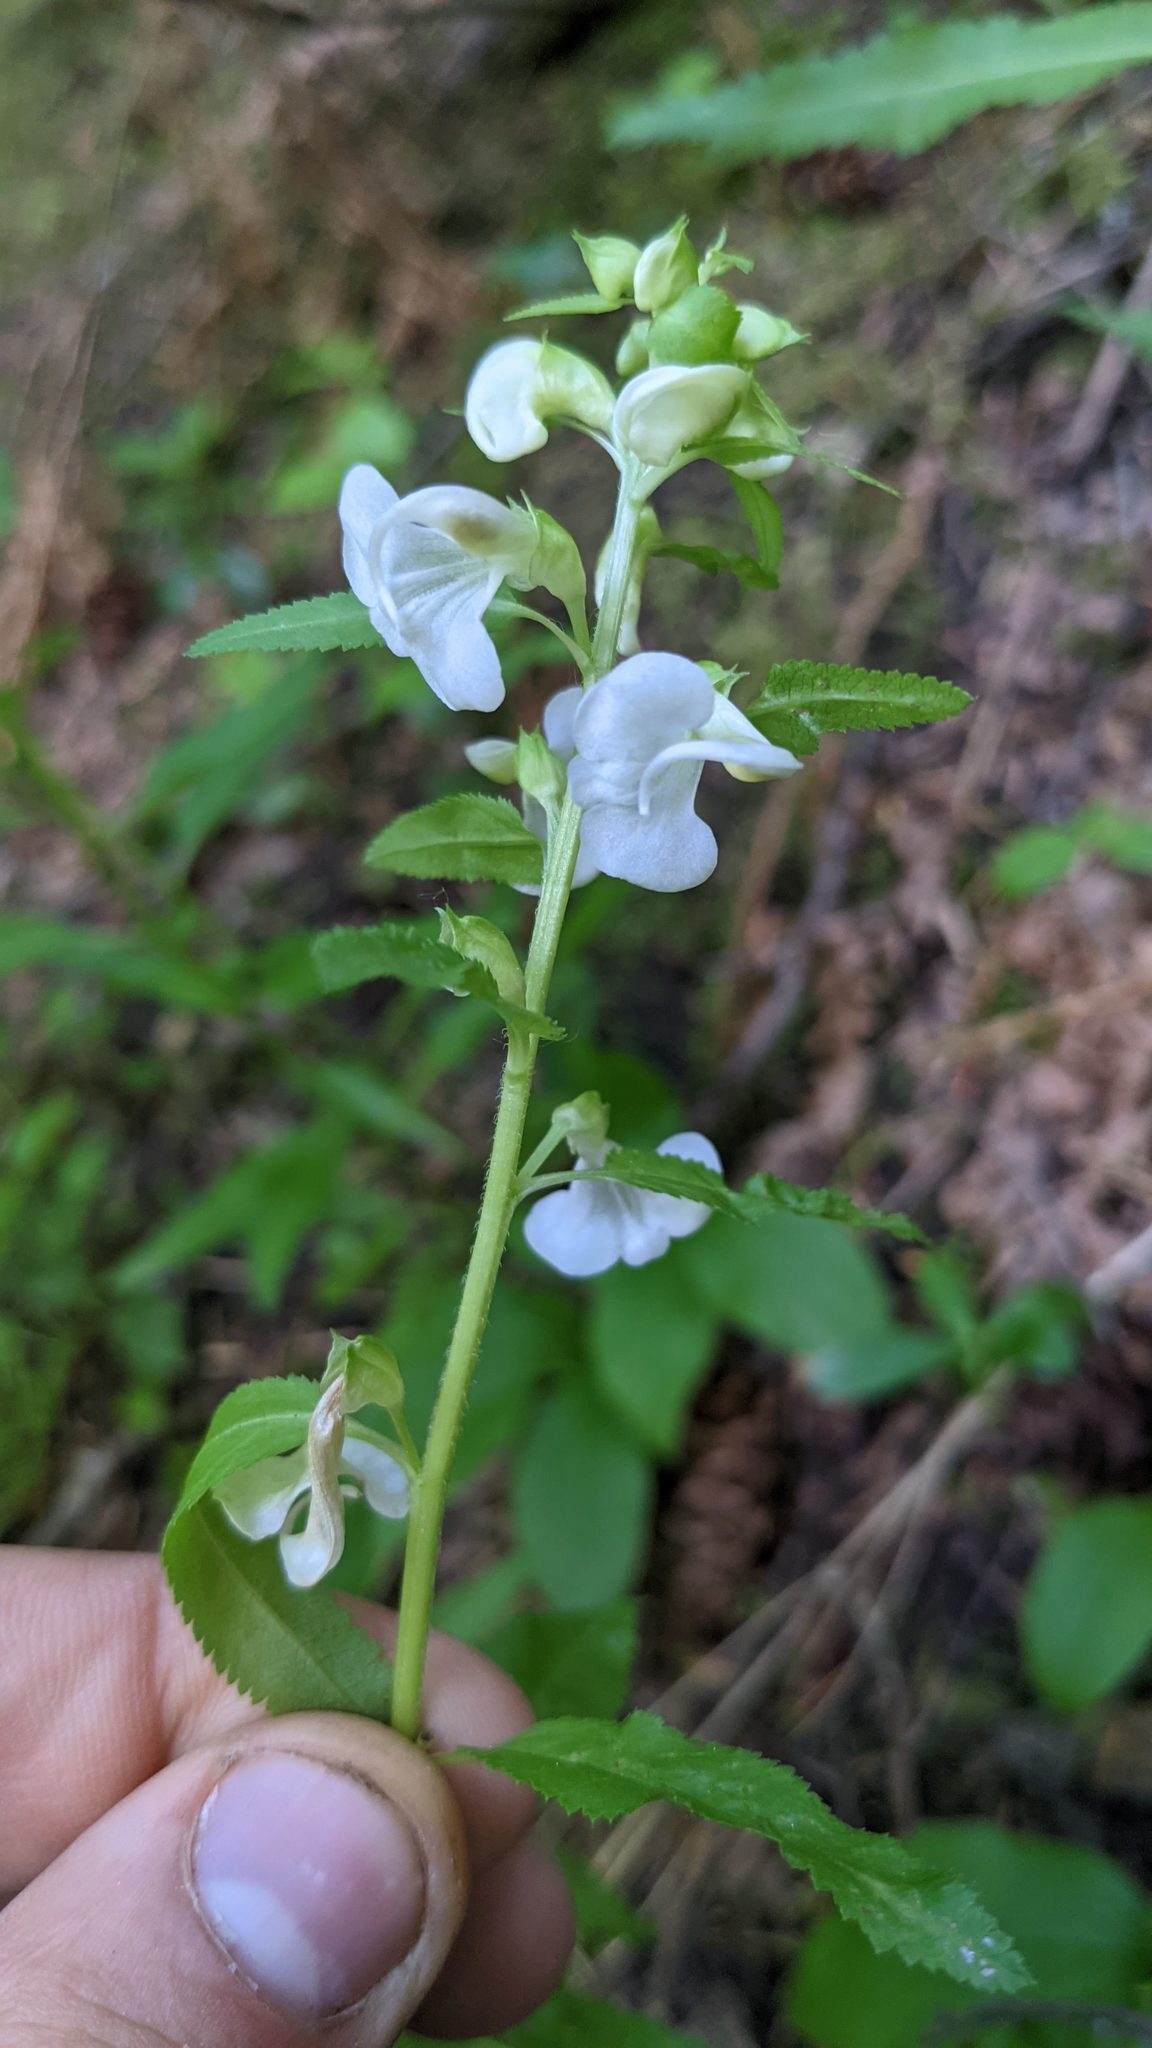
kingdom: Plantae
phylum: Tracheophyta
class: Magnoliopsida
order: Lamiales
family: Orobanchaceae
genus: Pedicularis
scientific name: Pedicularis racemosa
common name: Leafy lousewort
